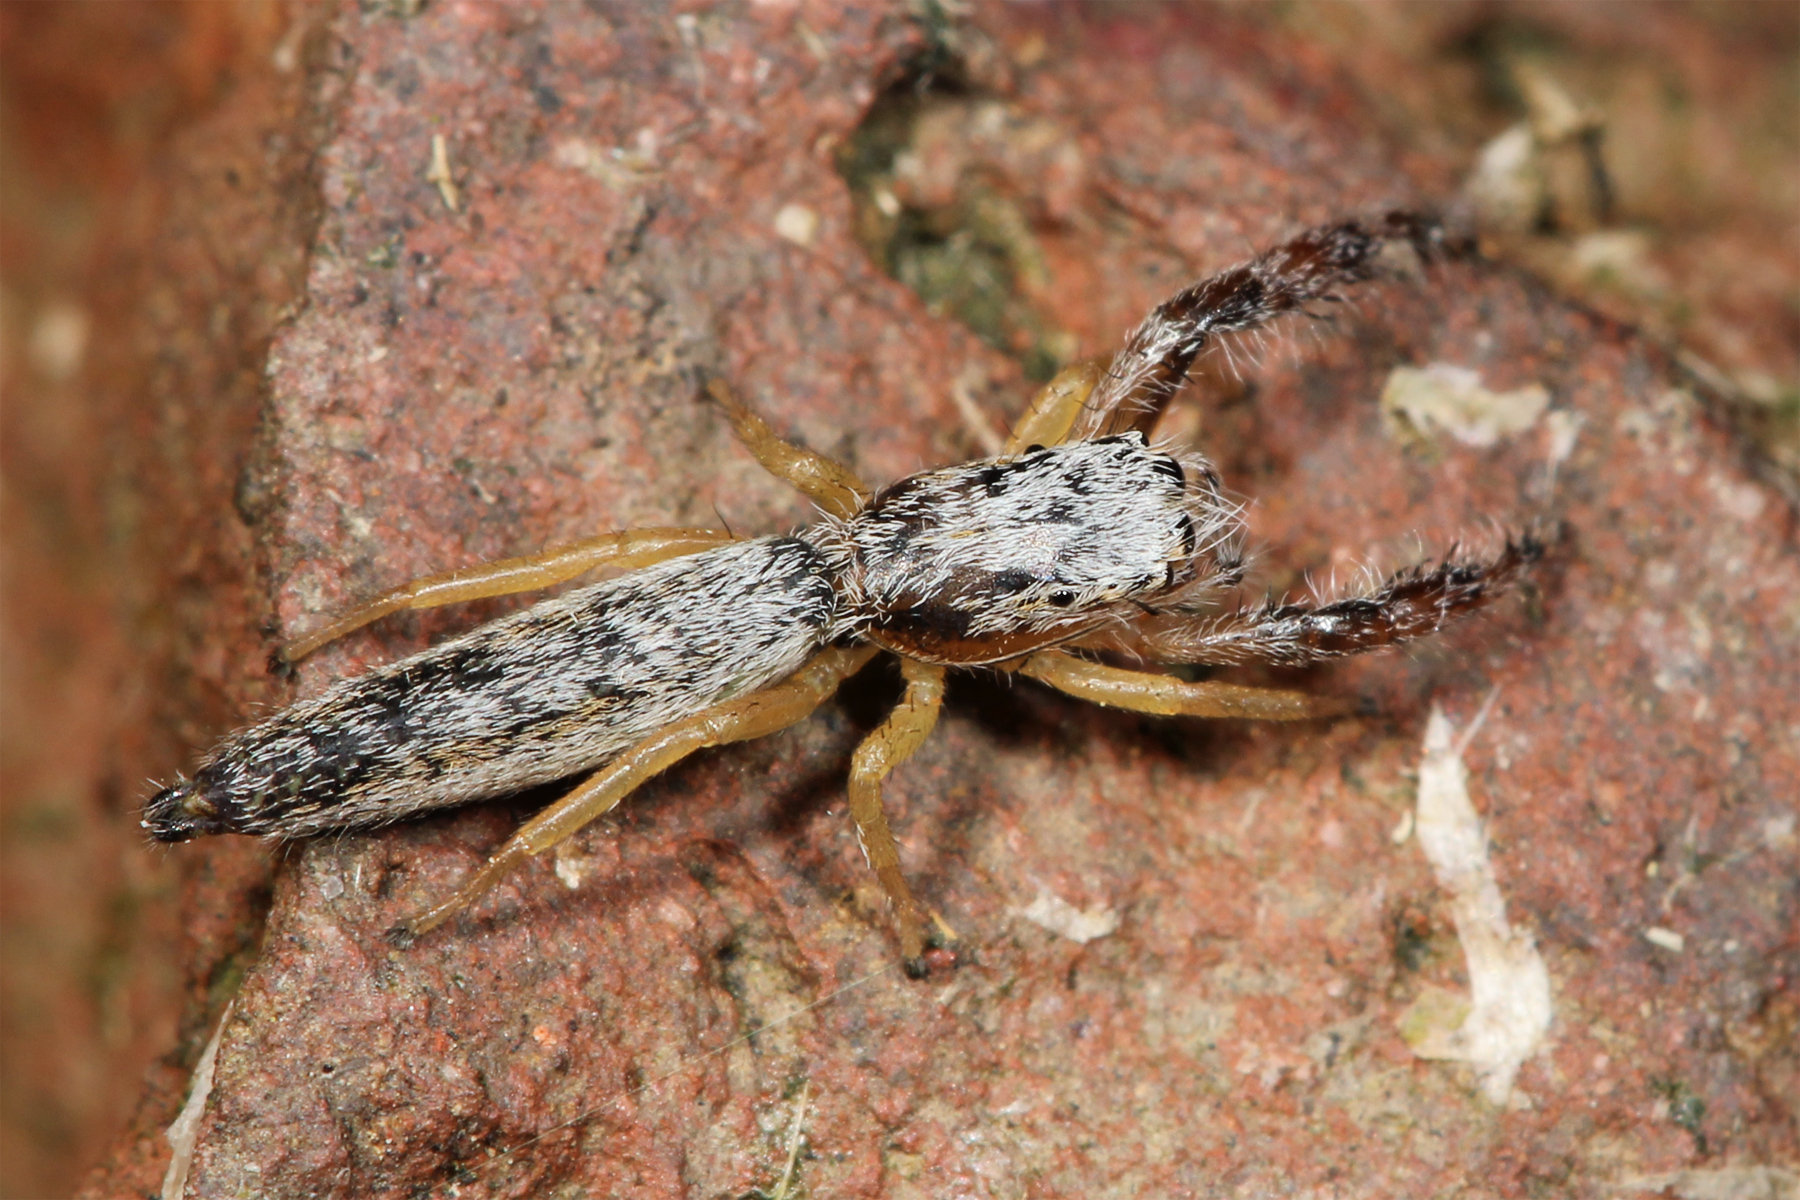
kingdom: Animalia
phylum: Arthropoda
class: Arachnida
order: Araneae
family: Salticidae
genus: Marpissa
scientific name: Marpissa pikei
